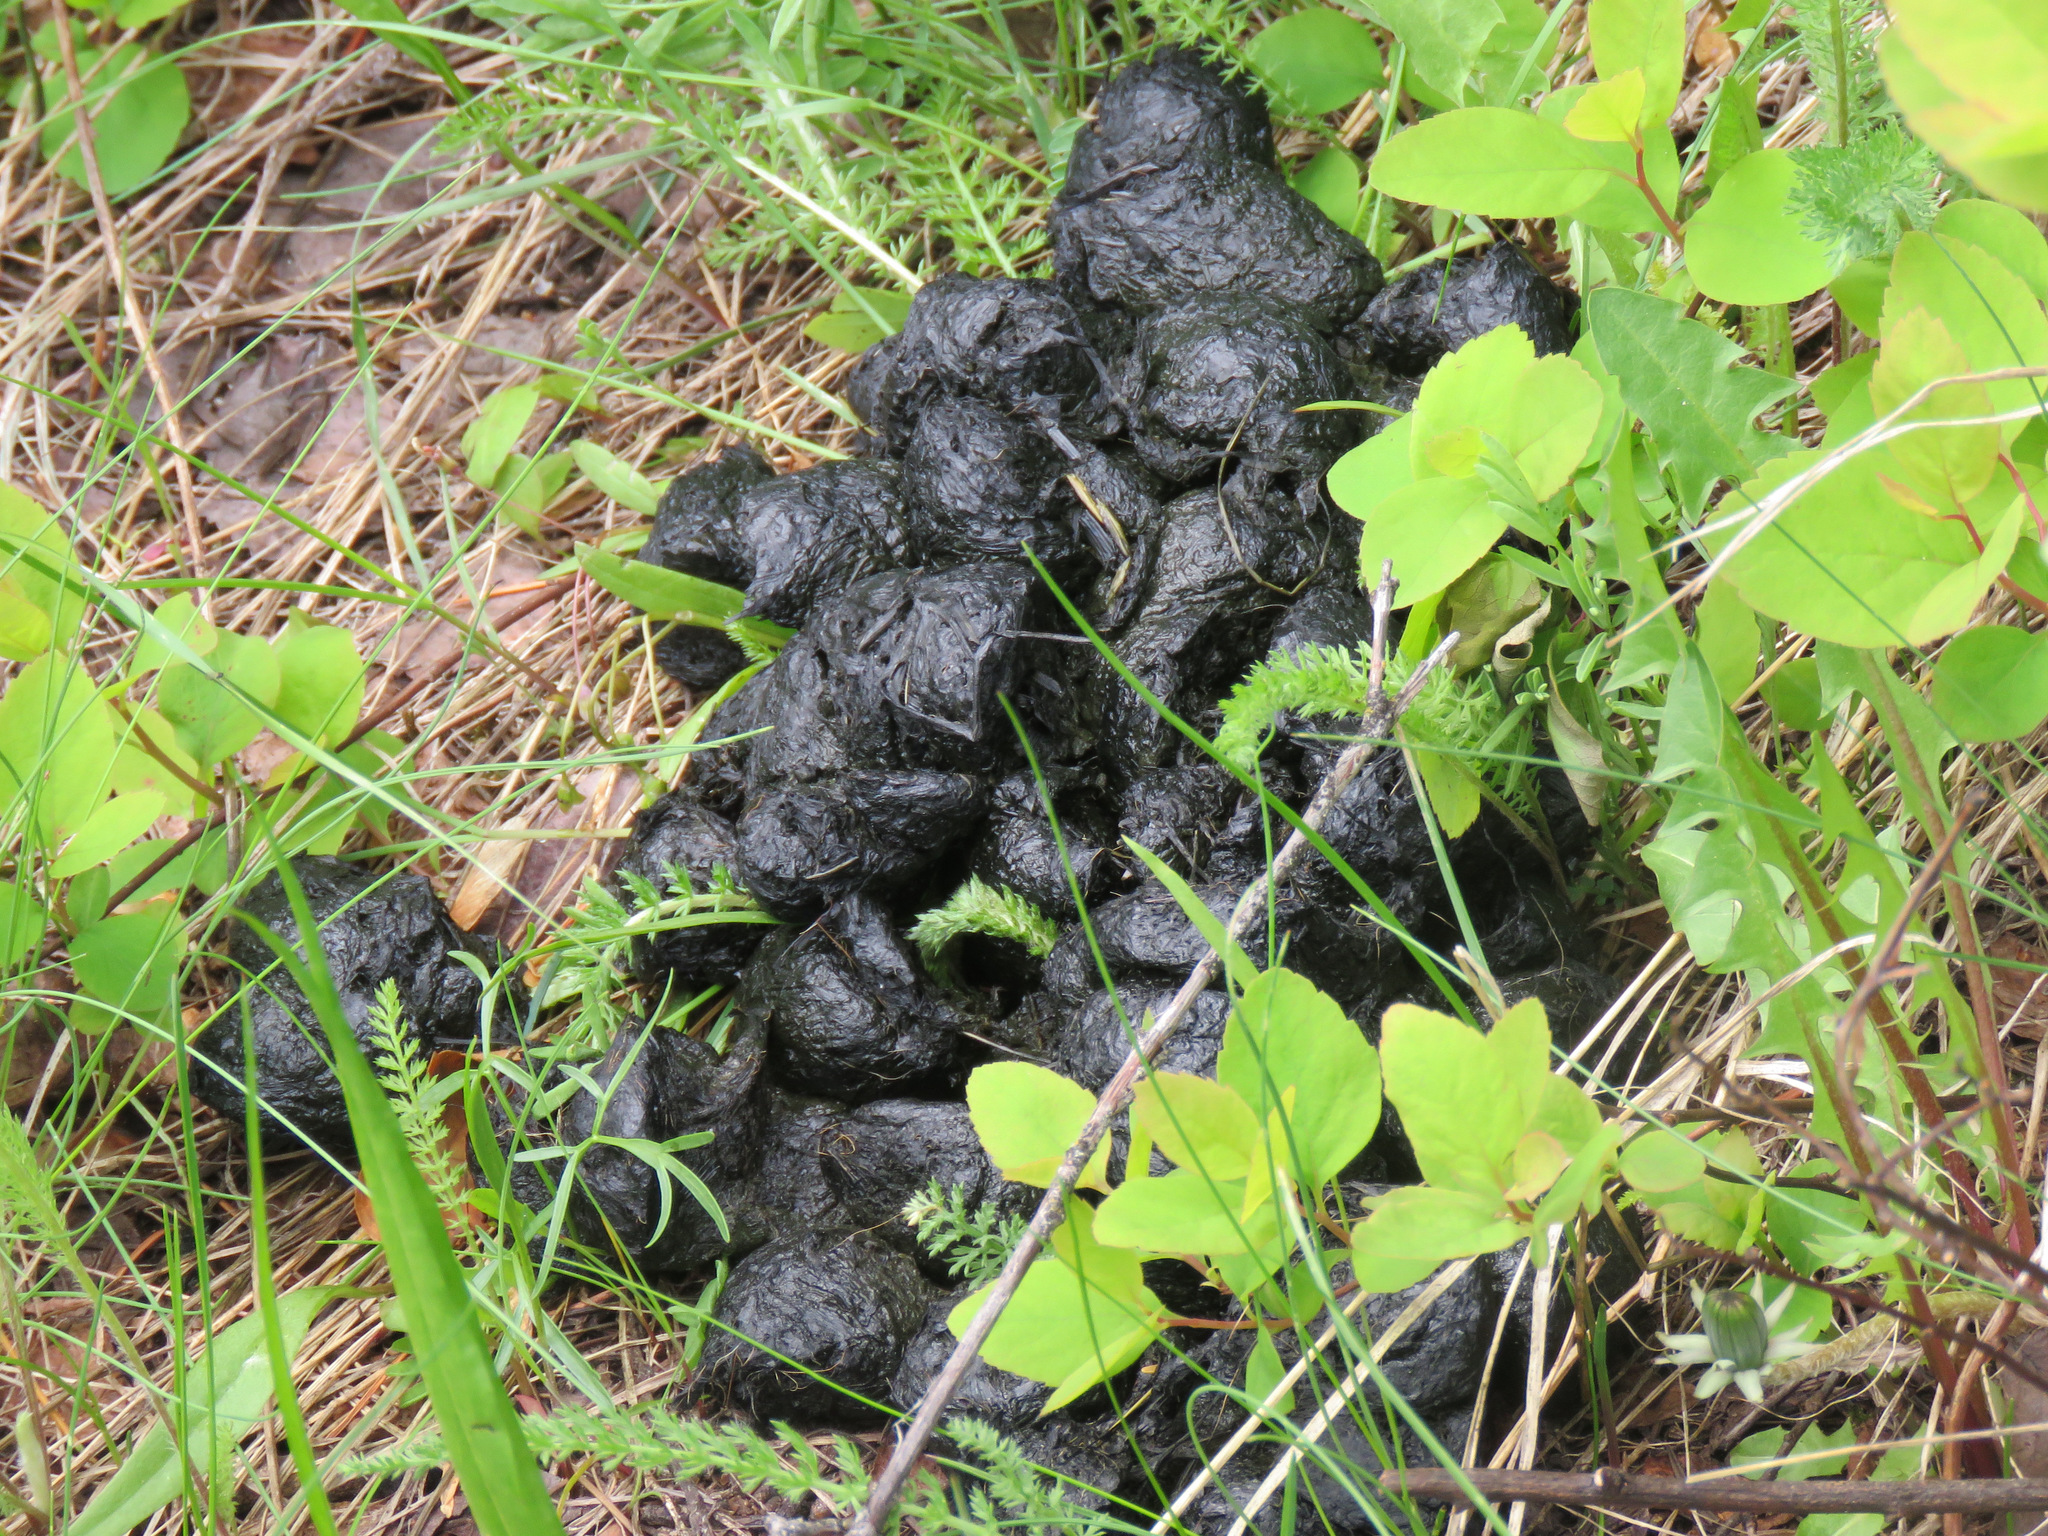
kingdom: Animalia
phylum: Chordata
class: Mammalia
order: Carnivora
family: Ursidae
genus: Ursus
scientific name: Ursus americanus
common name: American black bear
